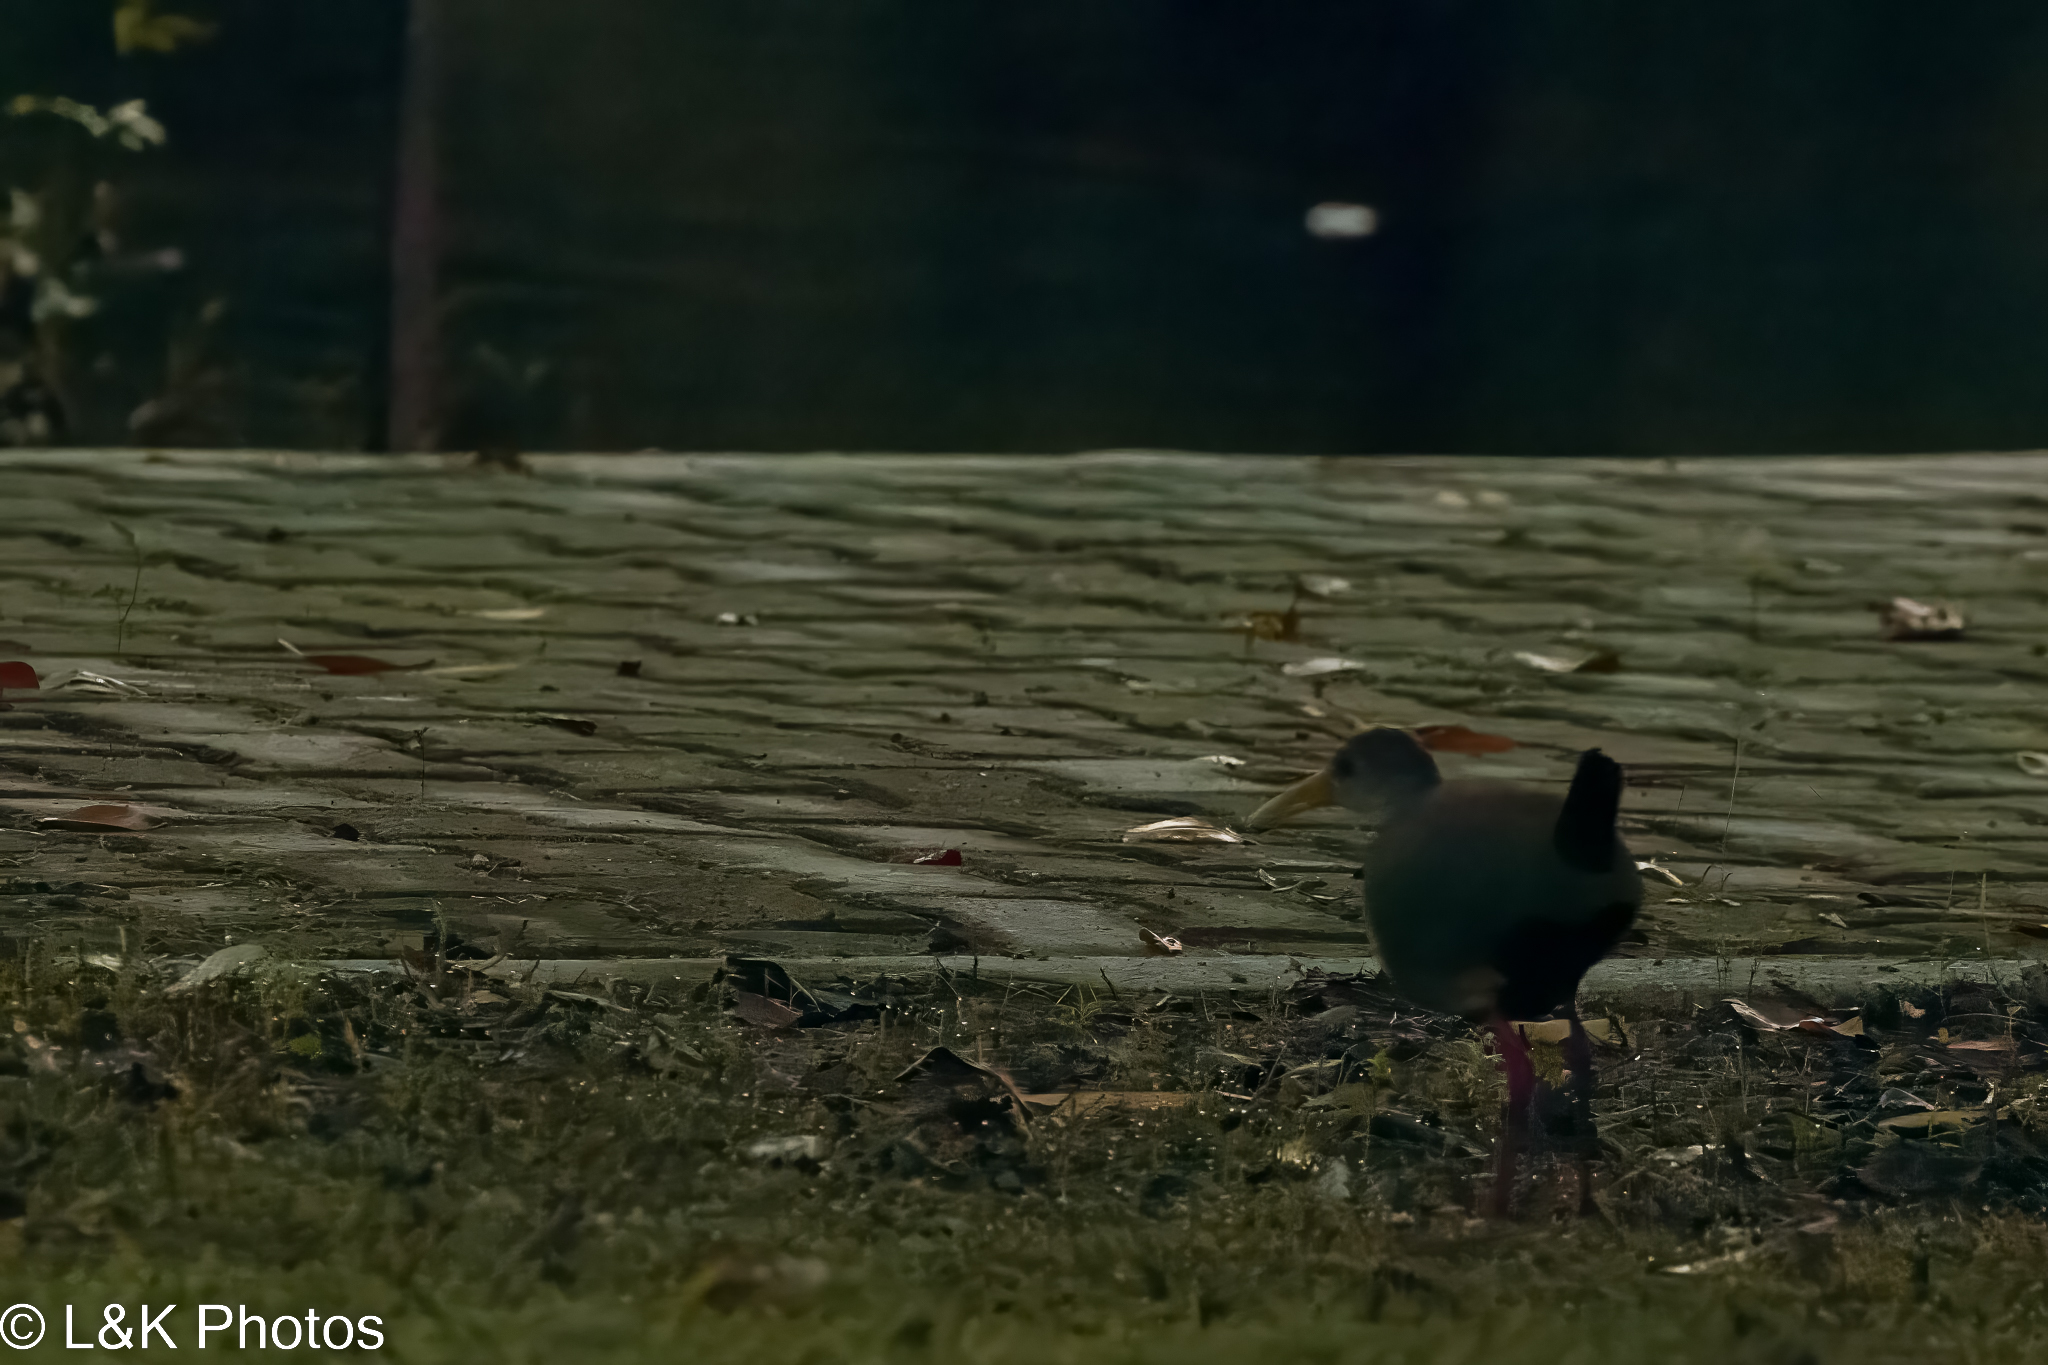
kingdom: Animalia
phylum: Chordata
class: Aves
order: Gruiformes
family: Rallidae
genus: Aramides
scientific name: Aramides albiventris
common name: Russet-naped wood-rail
